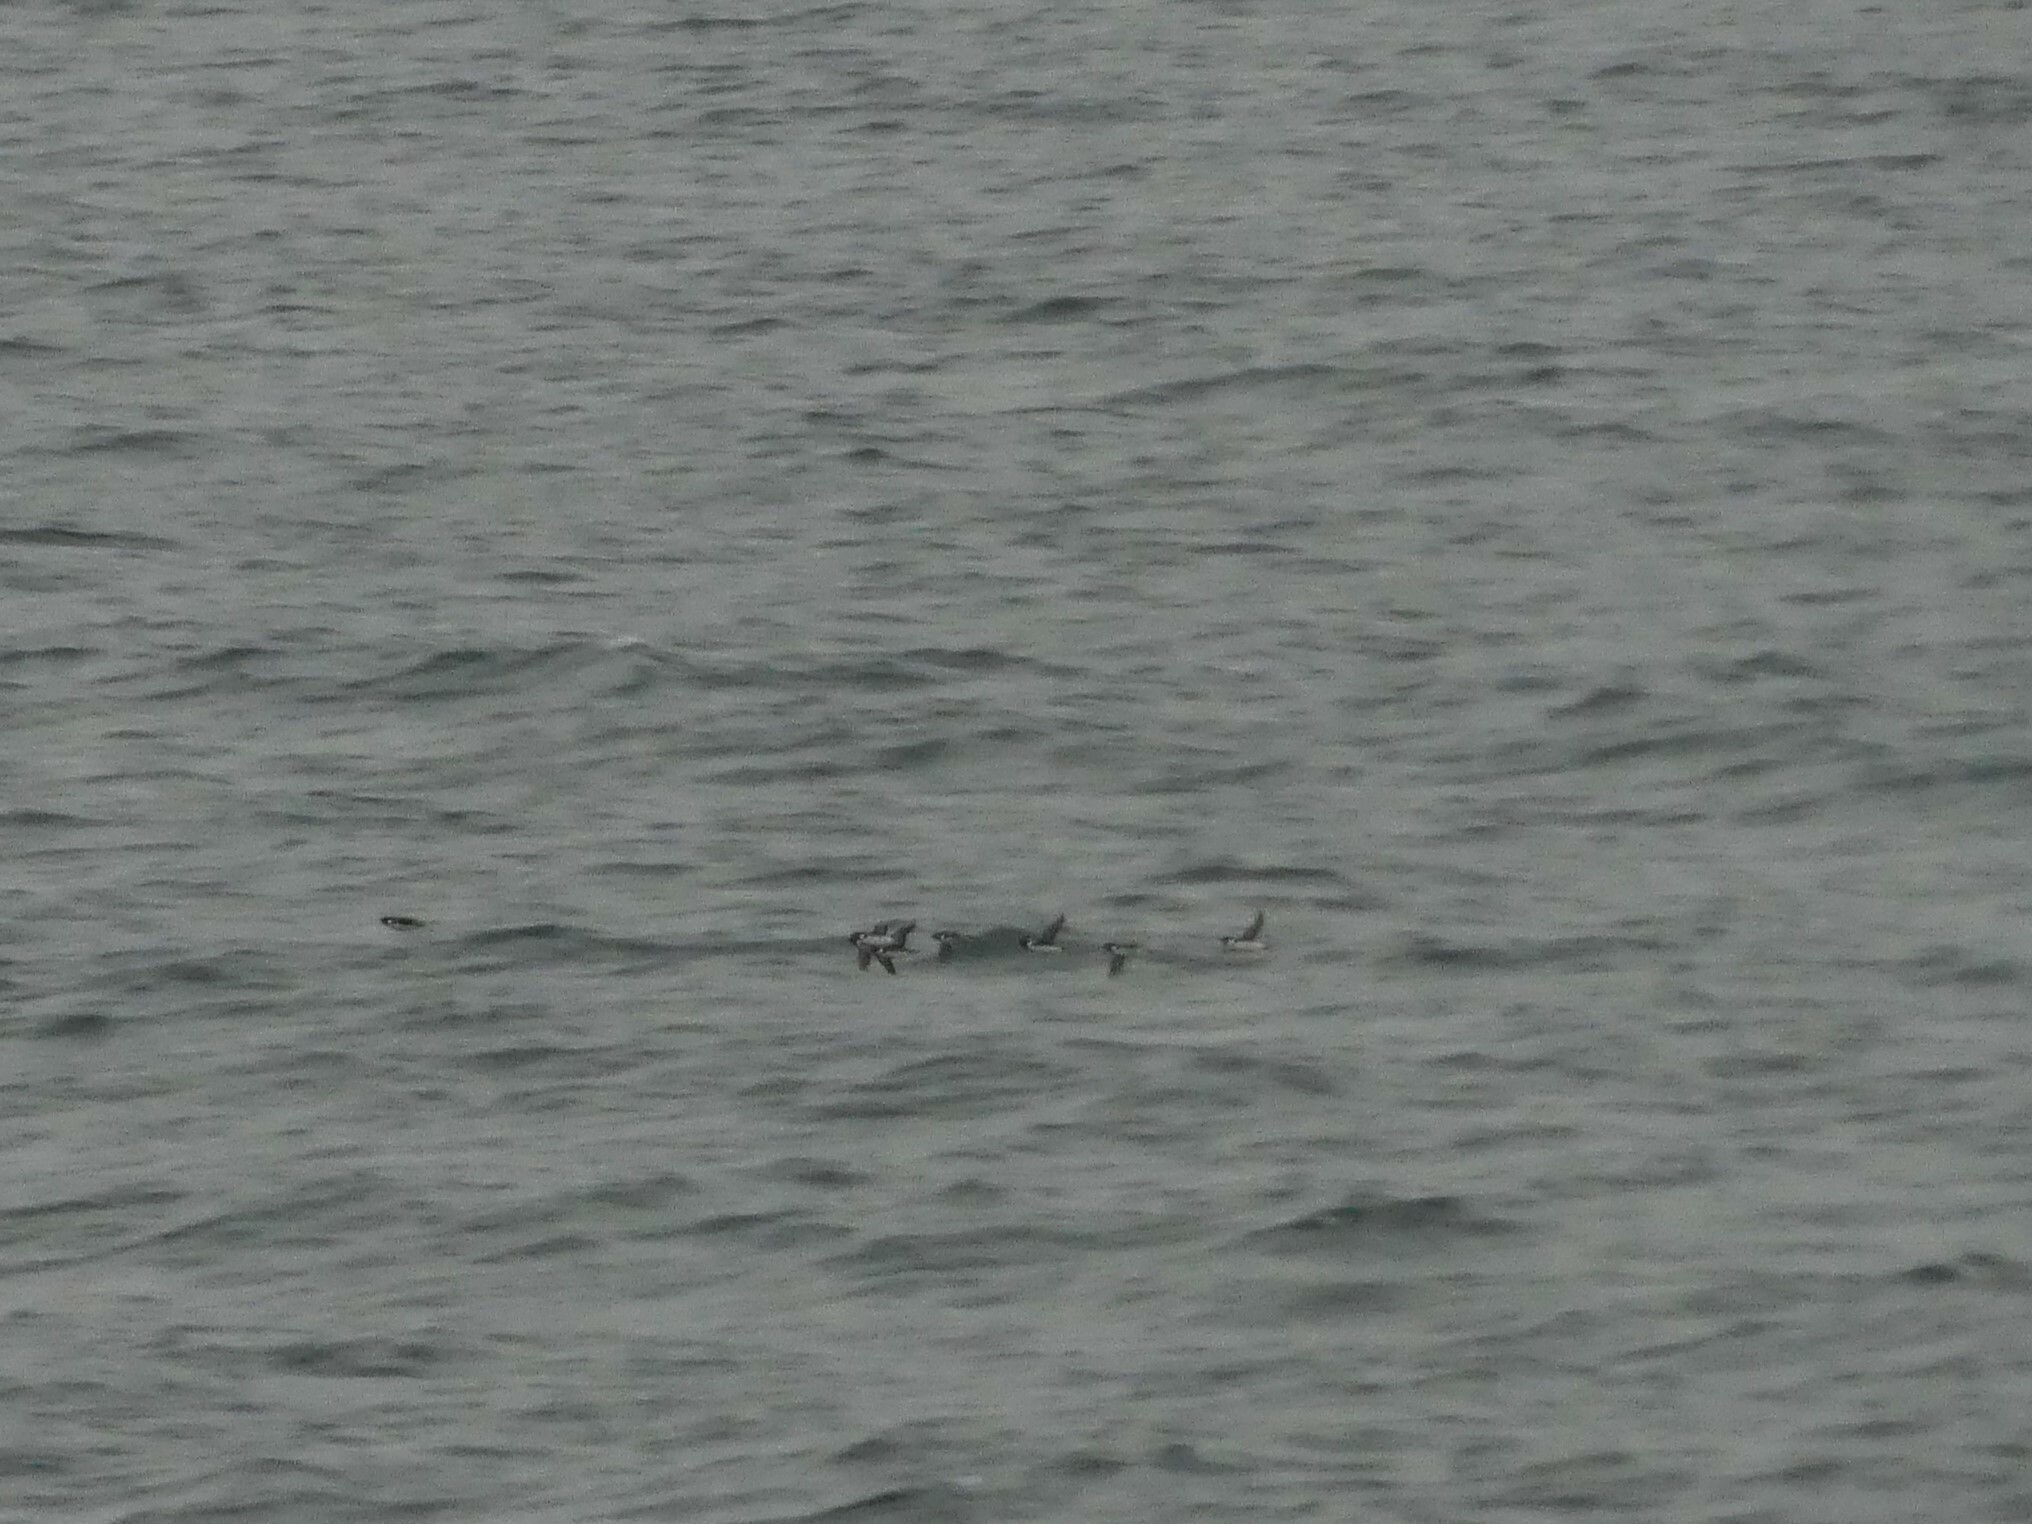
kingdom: Animalia
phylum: Chordata
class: Aves
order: Charadriiformes
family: Alcidae
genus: Synthliboramphus
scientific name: Synthliboramphus antiquus
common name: Ancient murrelet
